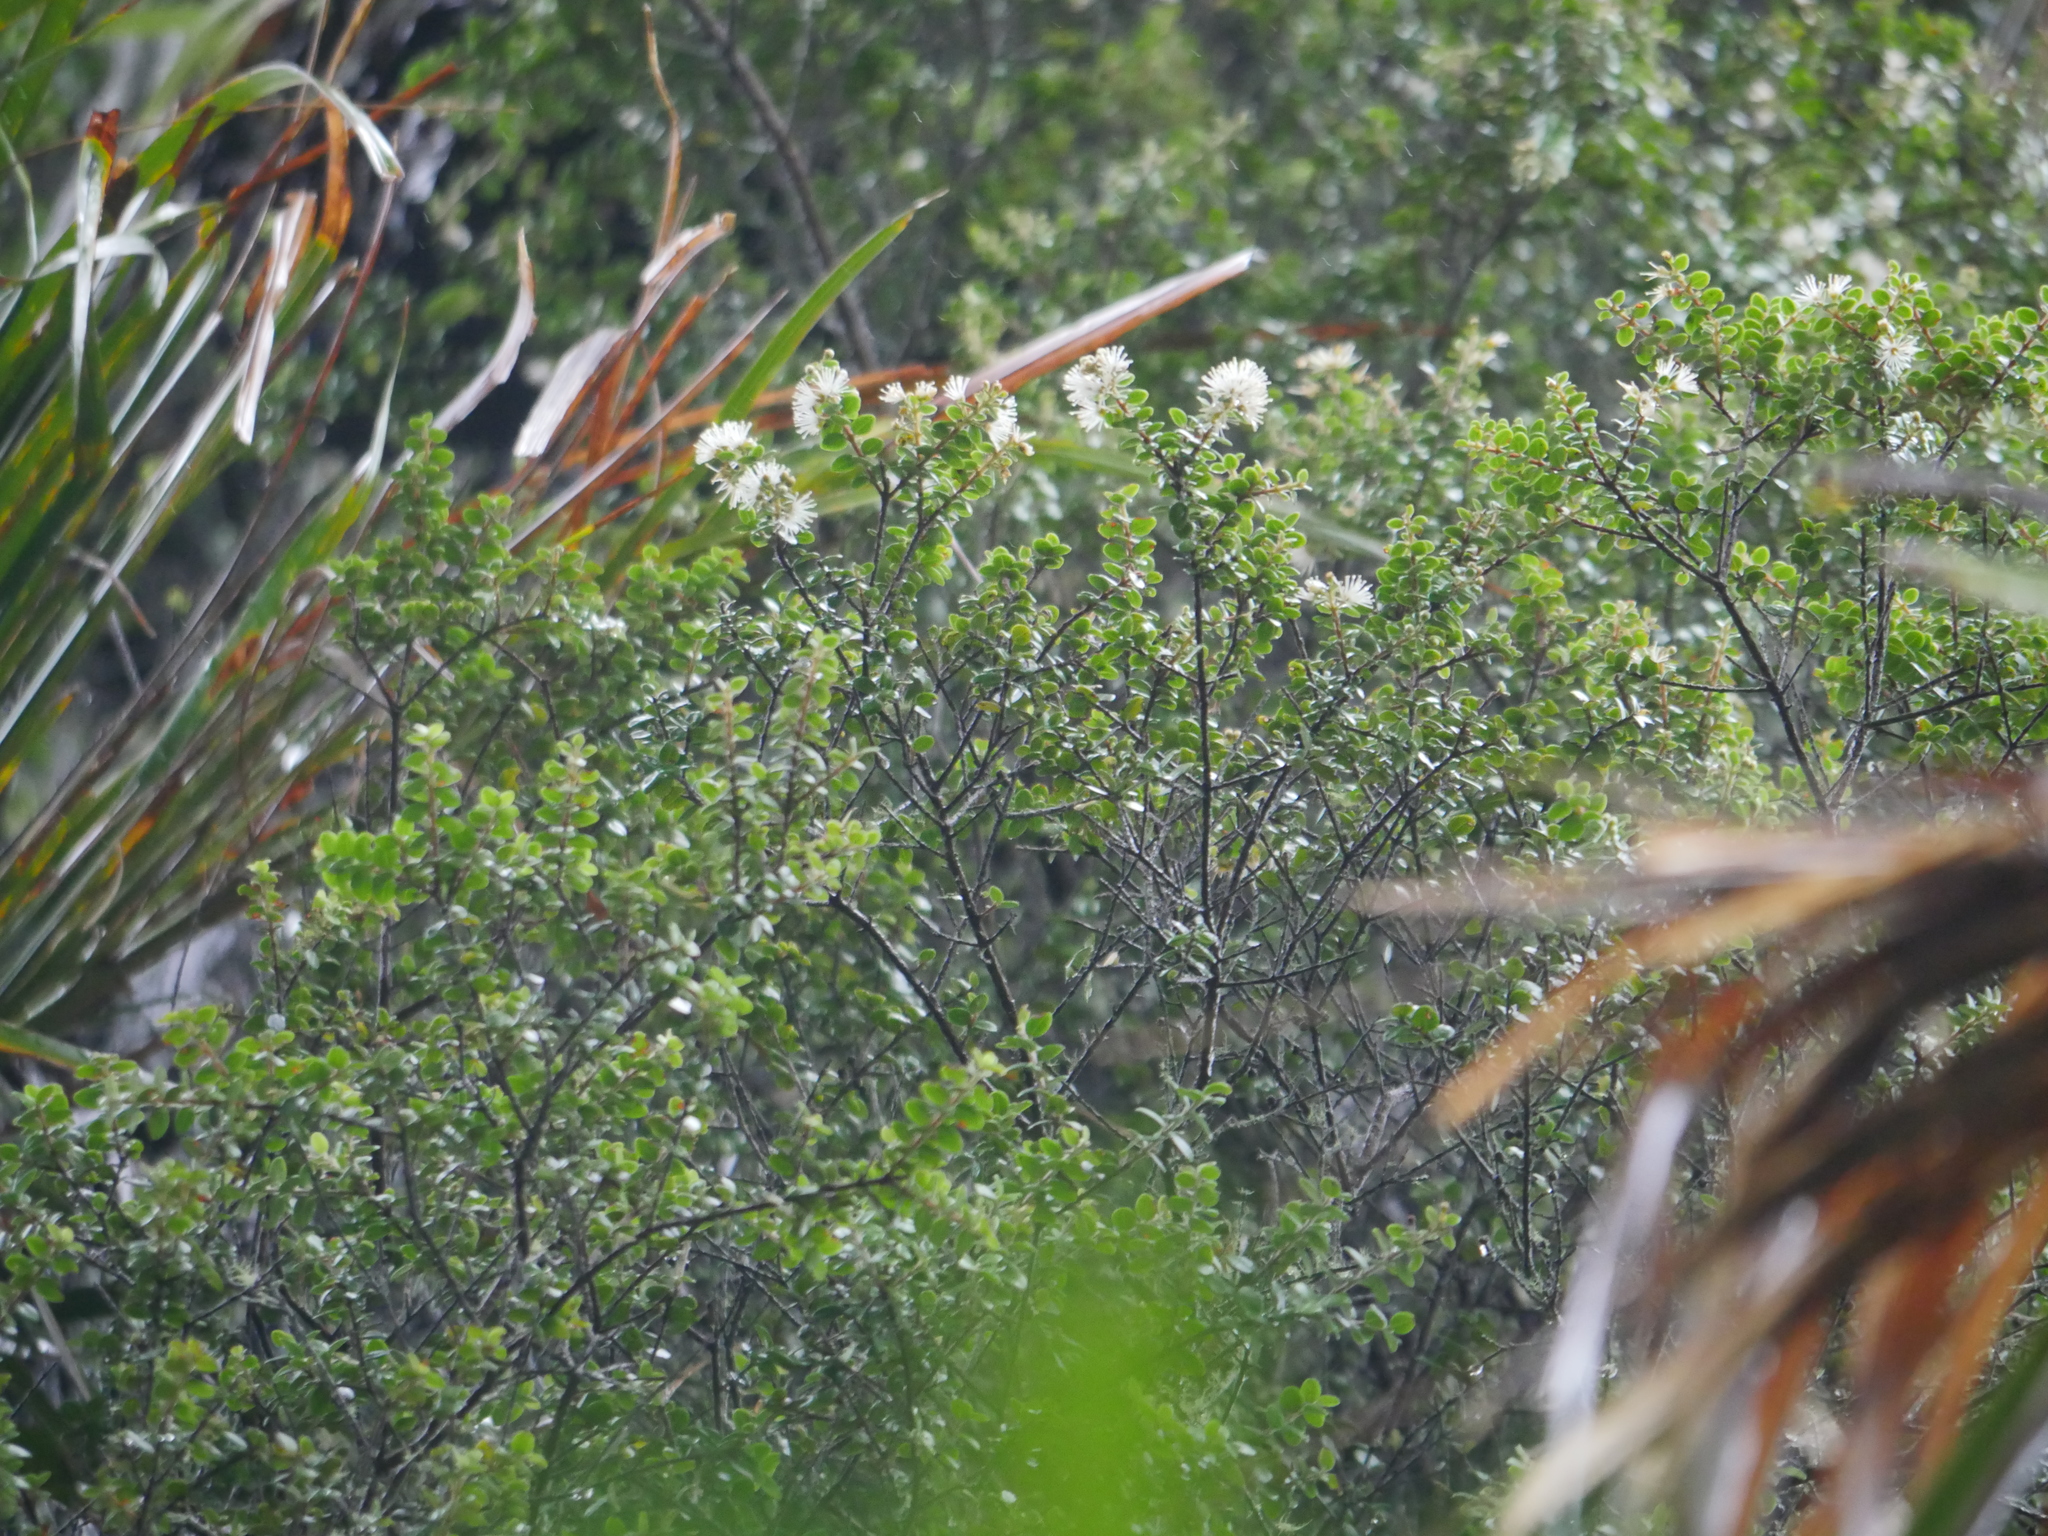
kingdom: Plantae
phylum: Tracheophyta
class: Magnoliopsida
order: Myrtales
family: Myrtaceae
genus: Metrosideros
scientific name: Metrosideros perforata
